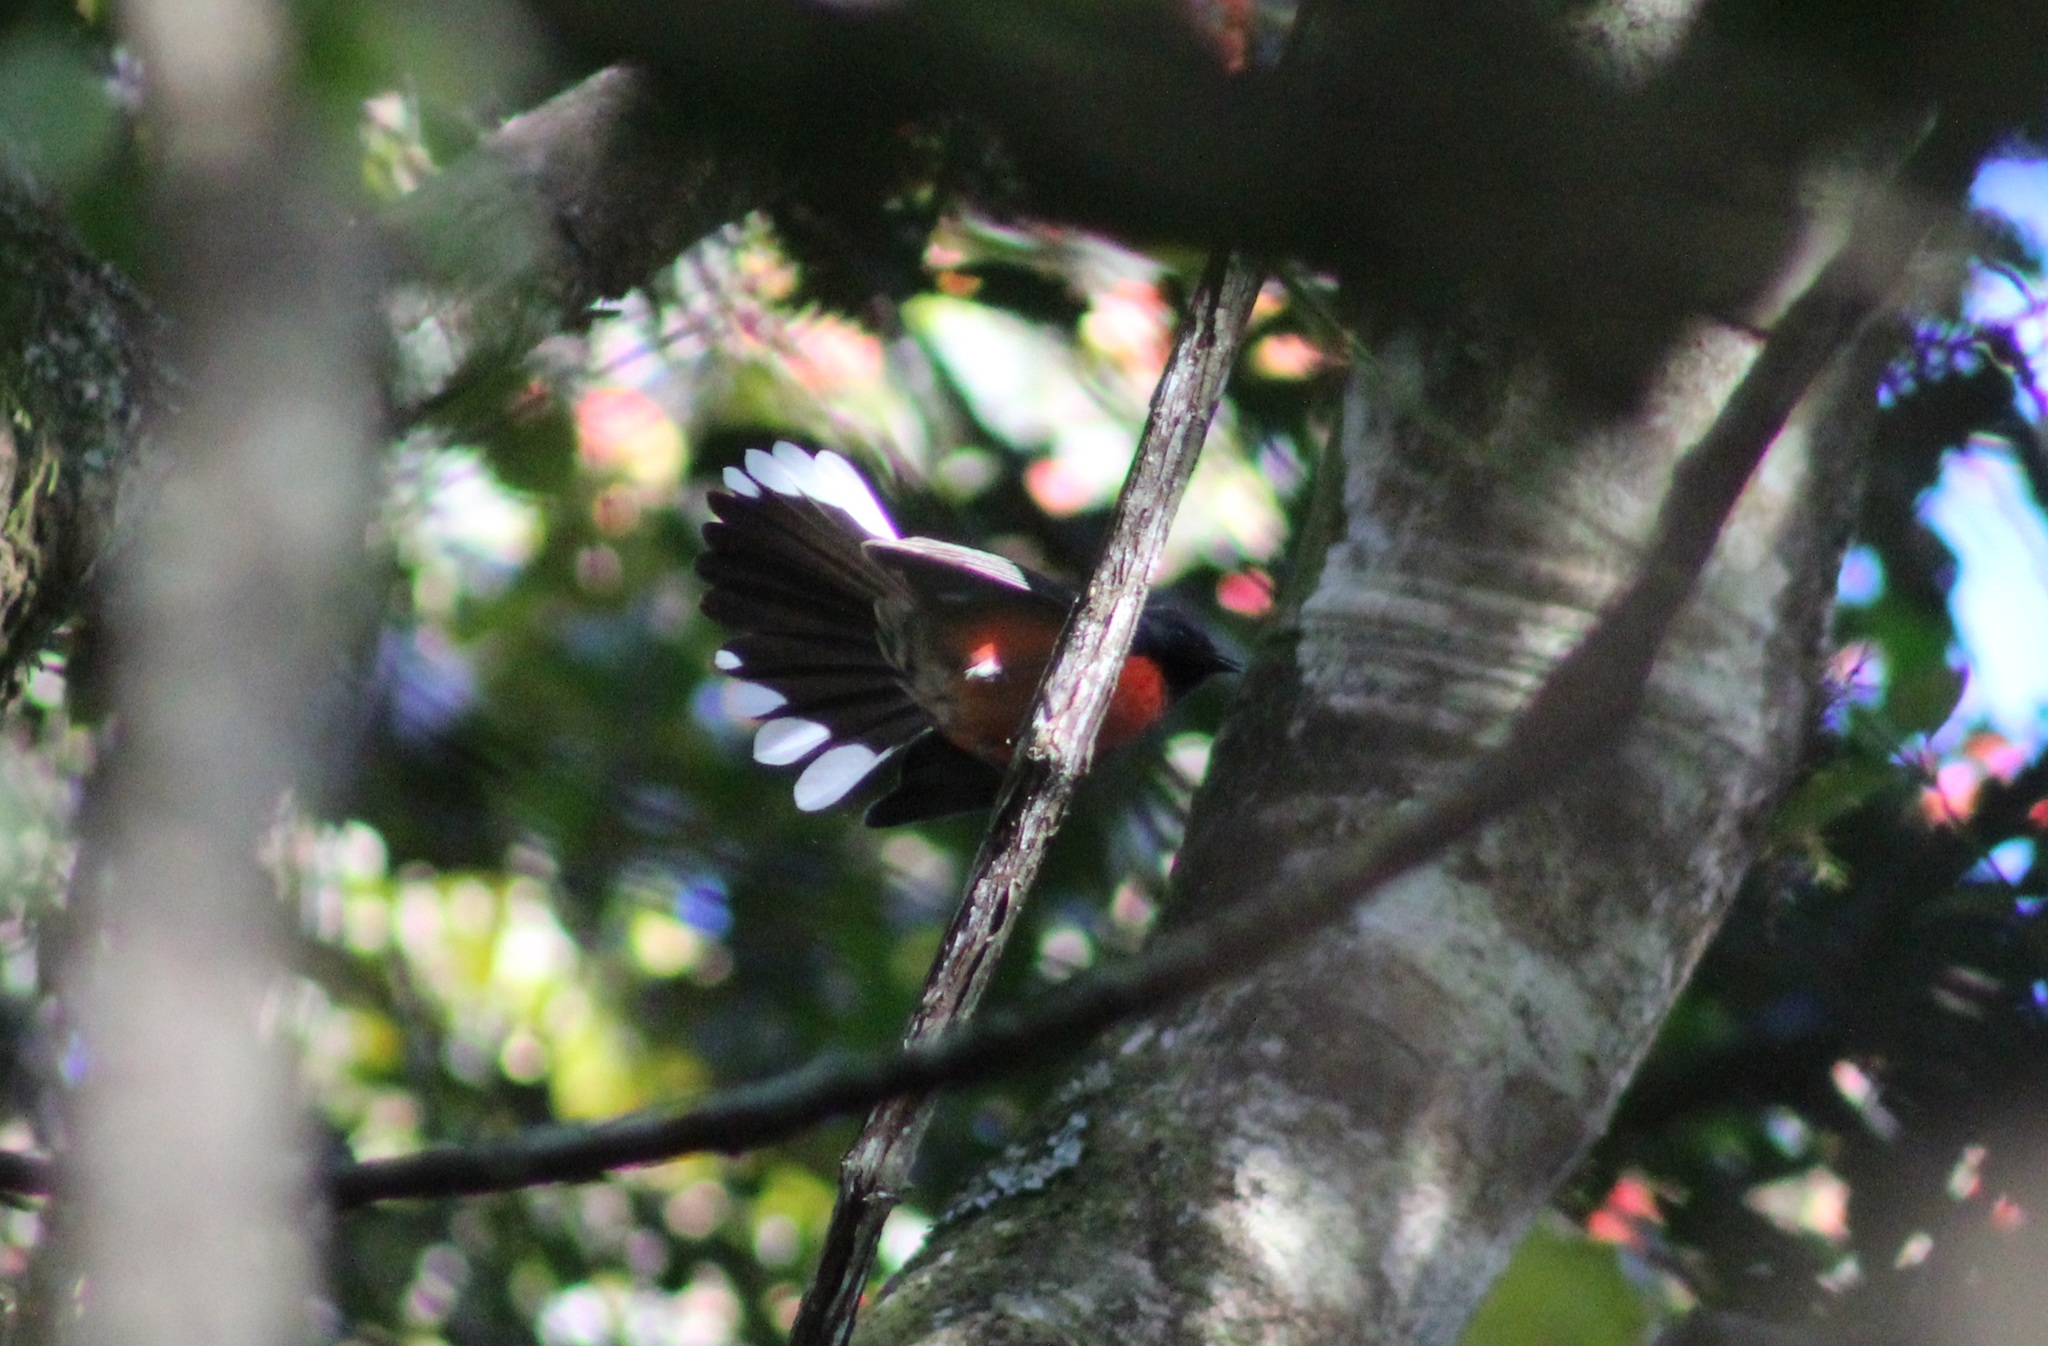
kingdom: Animalia
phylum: Chordata
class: Aves
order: Passeriformes
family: Parulidae
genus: Myioborus
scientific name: Myioborus miniatus
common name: Slate-throated redstart
